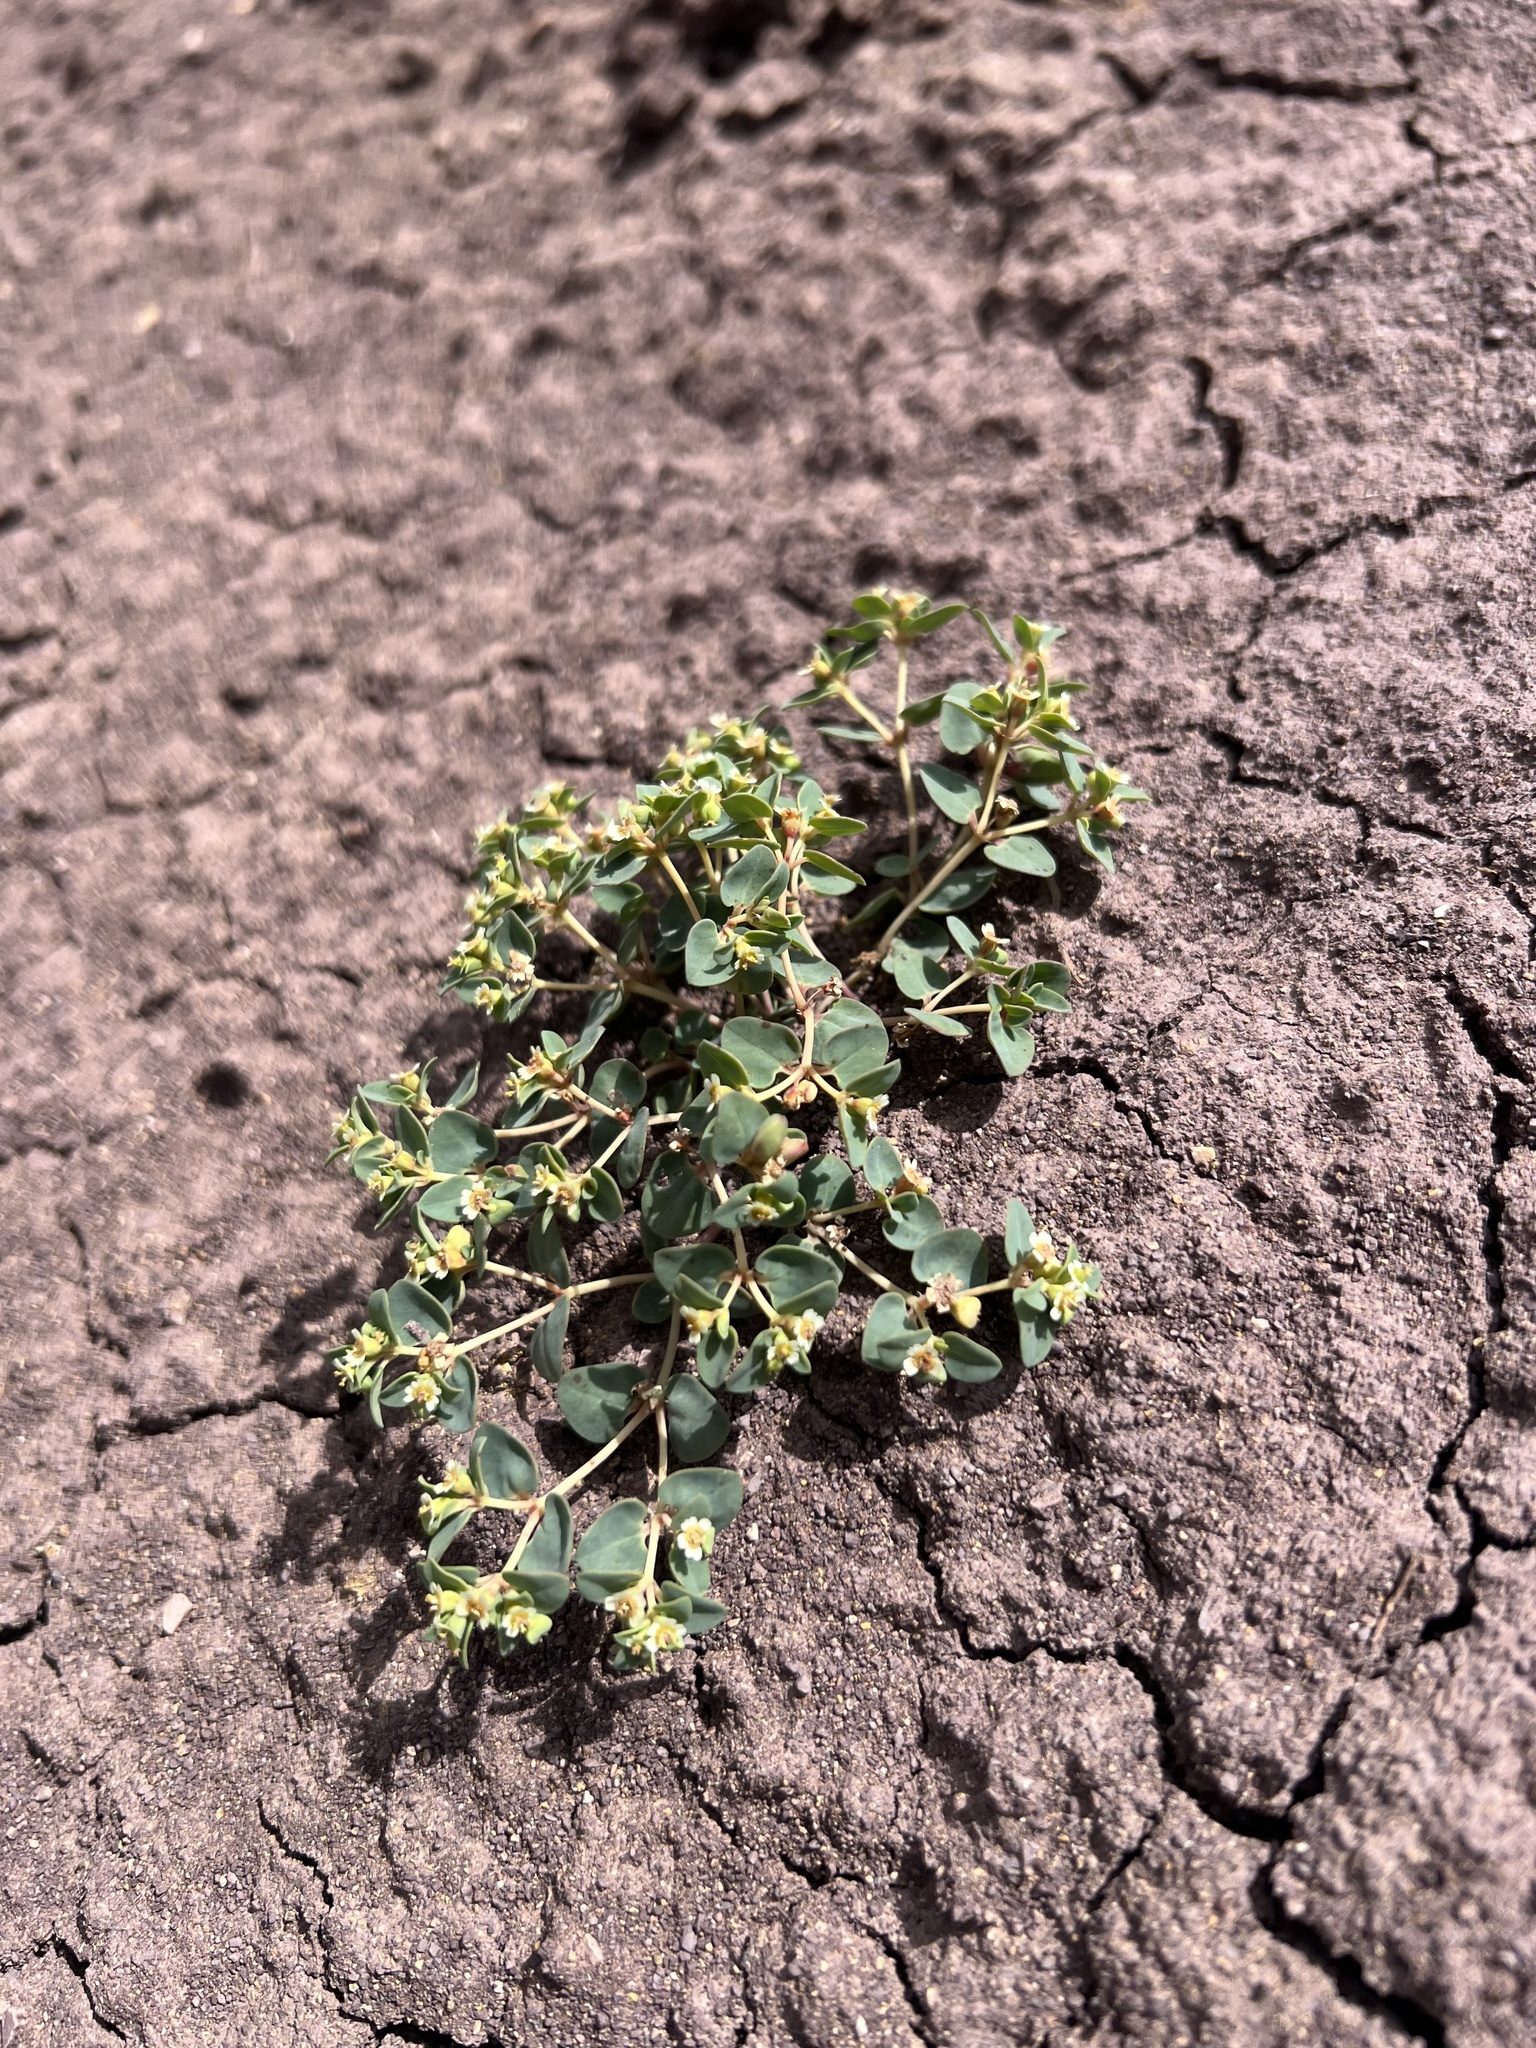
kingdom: Plantae
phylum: Tracheophyta
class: Magnoliopsida
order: Malpighiales
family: Euphorbiaceae
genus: Euphorbia
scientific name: Euphorbia fendleri
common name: Fendler's euphorbia
